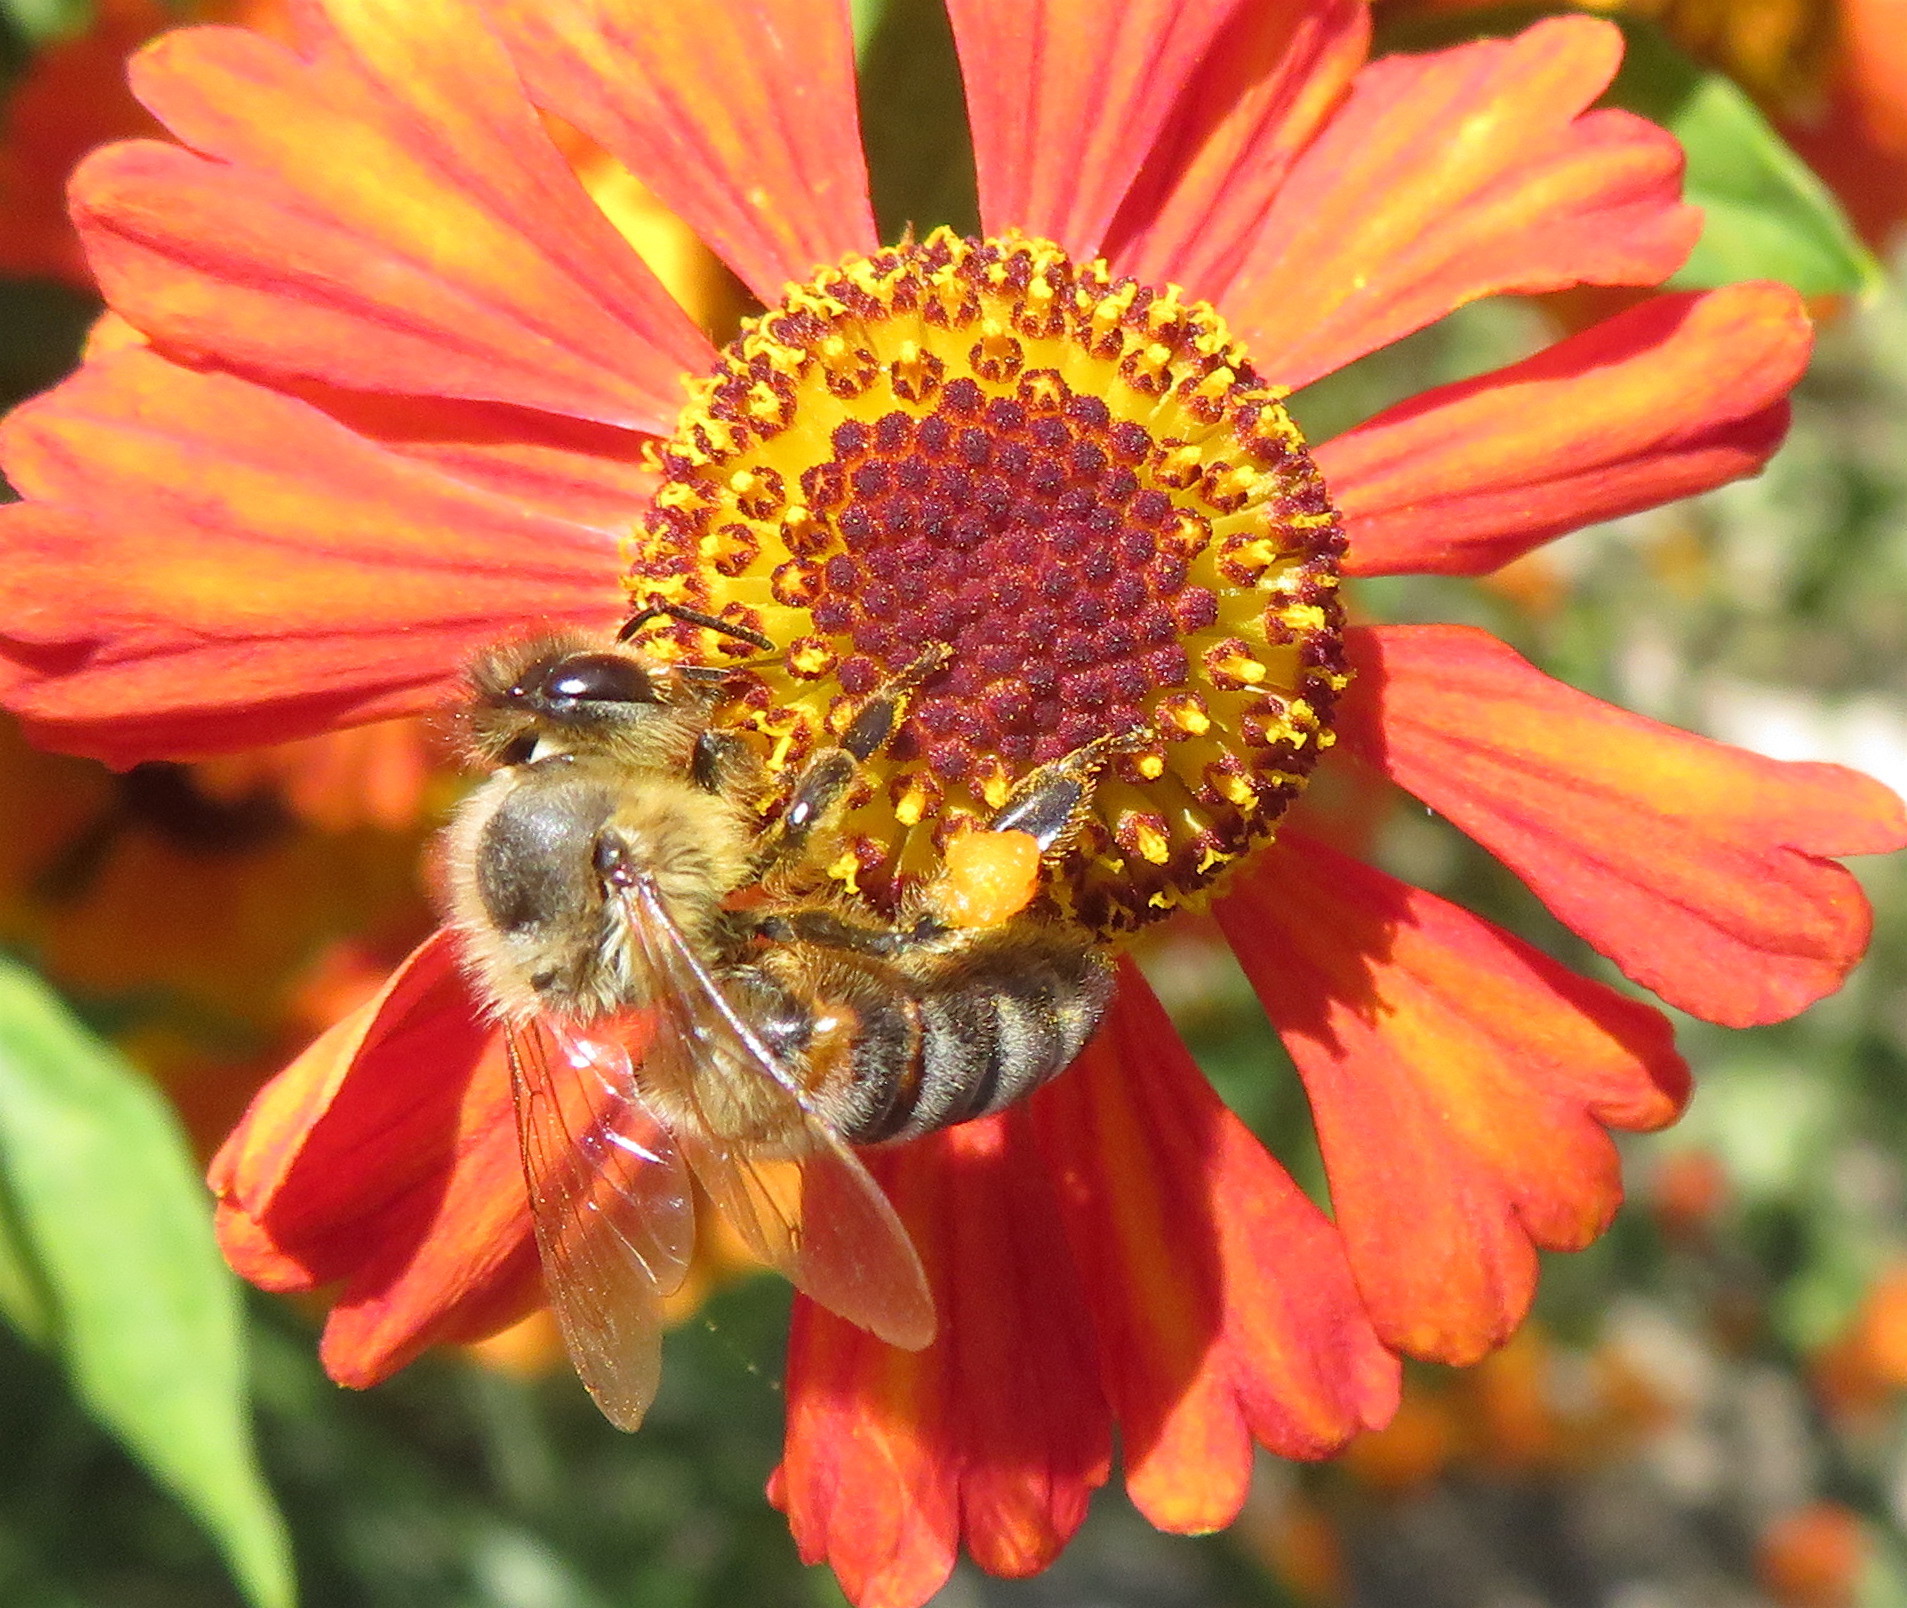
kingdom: Animalia
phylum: Arthropoda
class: Insecta
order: Hymenoptera
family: Apidae
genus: Apis
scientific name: Apis mellifera
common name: Honey bee
